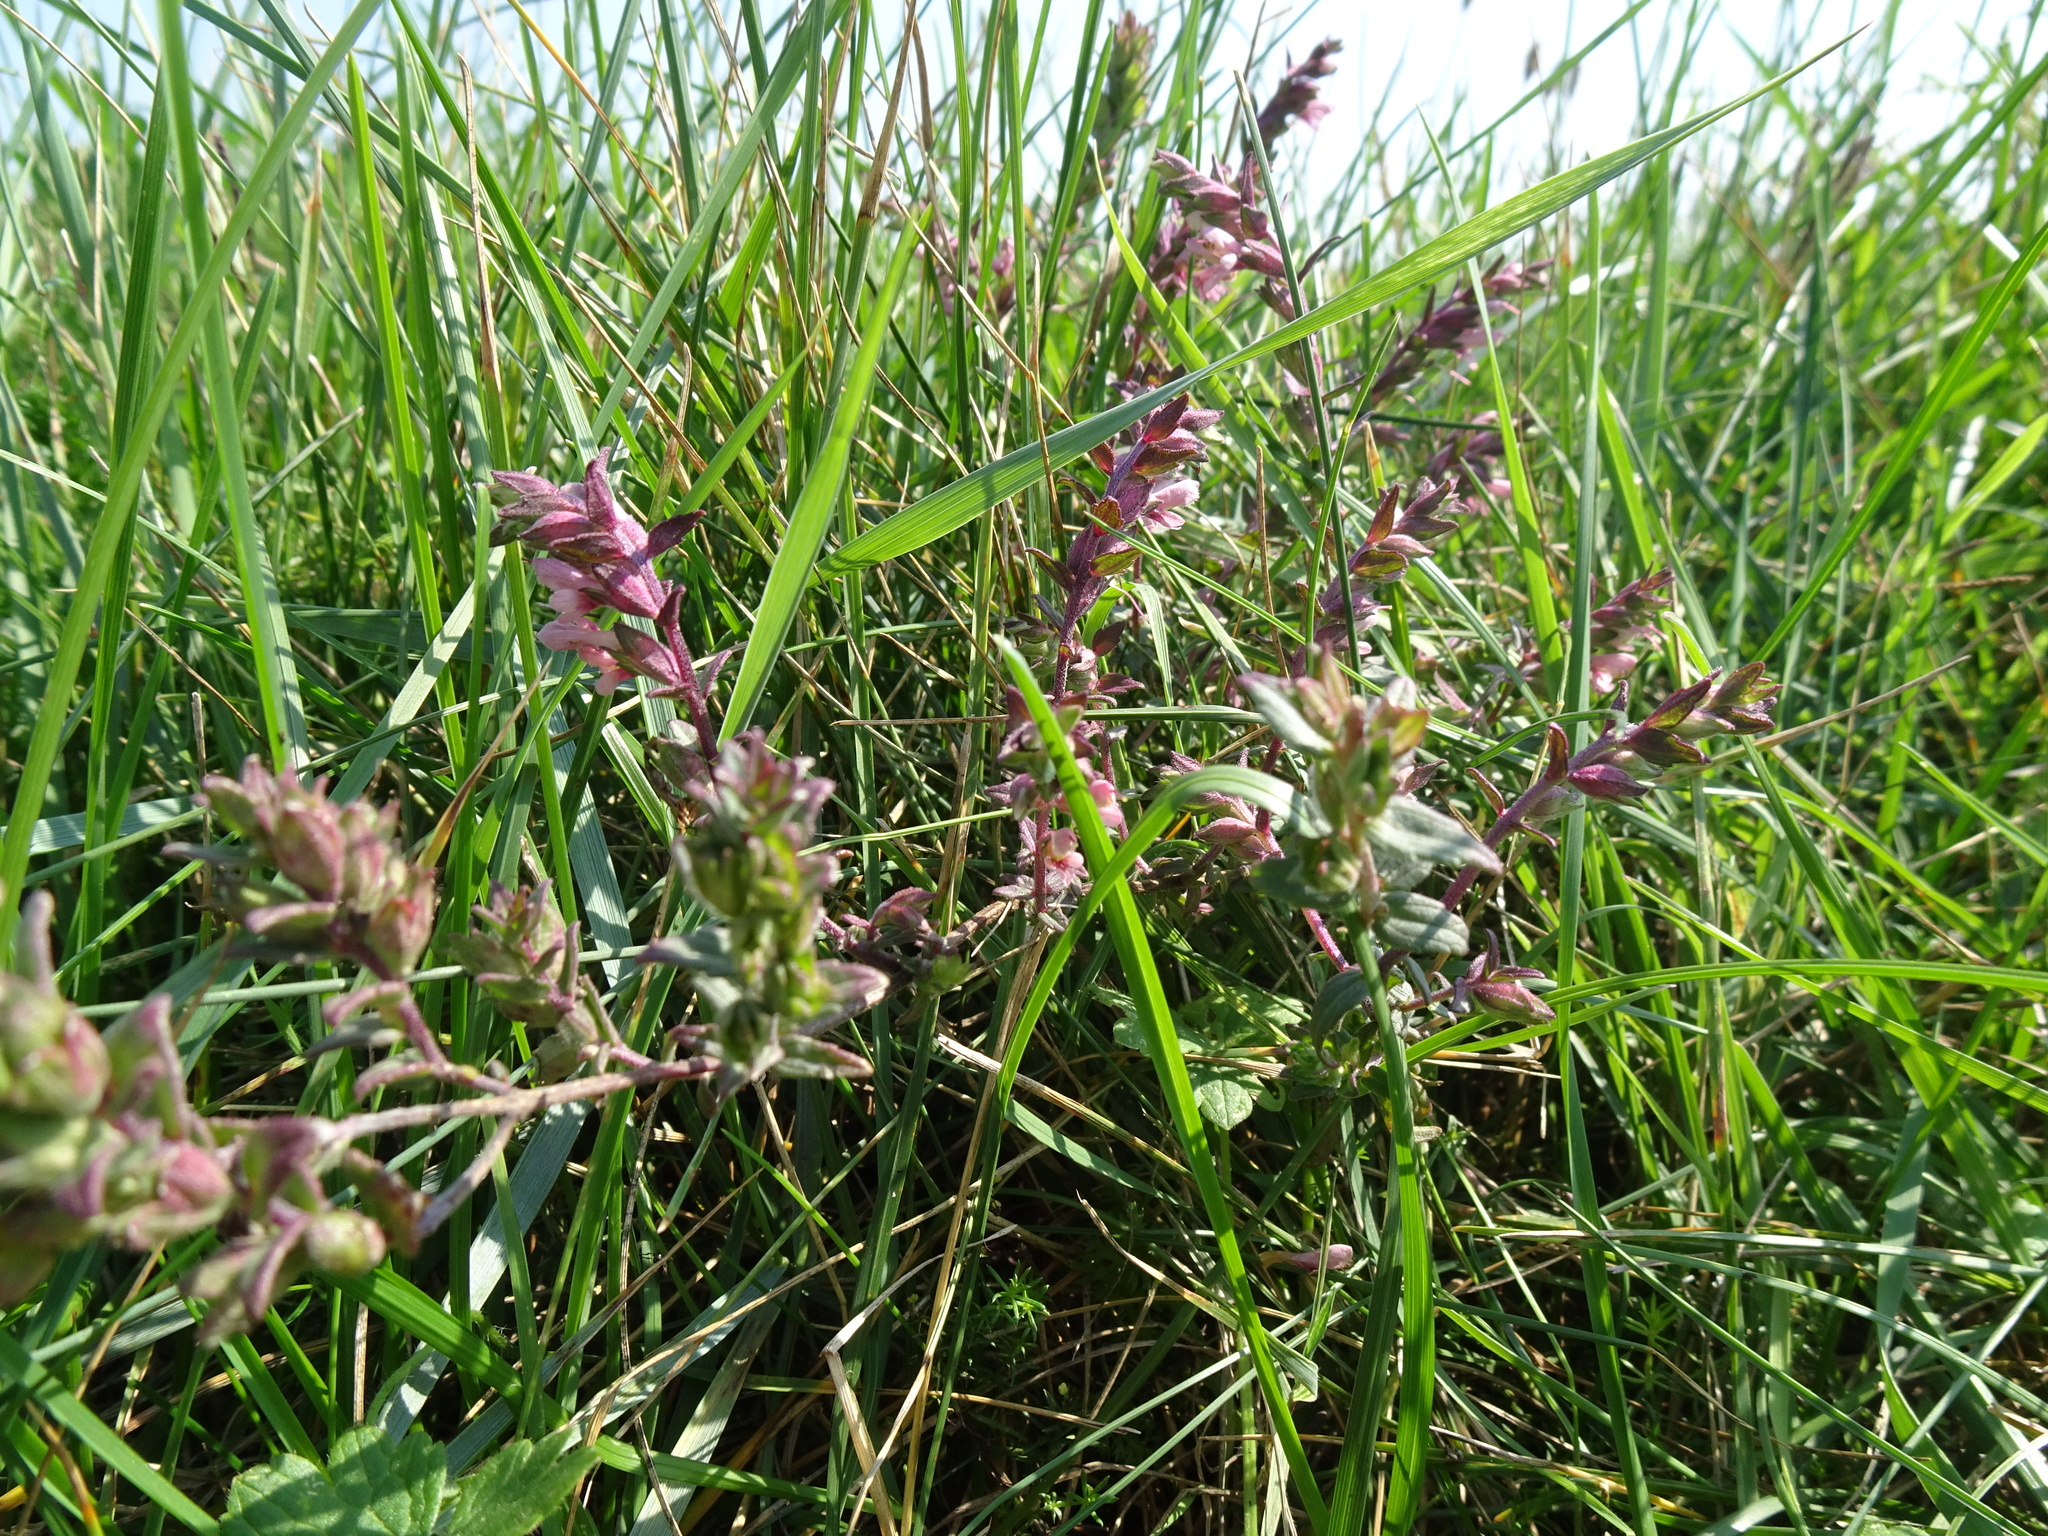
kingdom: Plantae
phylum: Tracheophyta
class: Magnoliopsida
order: Lamiales
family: Orobanchaceae
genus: Odontites
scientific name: Odontites vulgaris
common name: Broomrape
